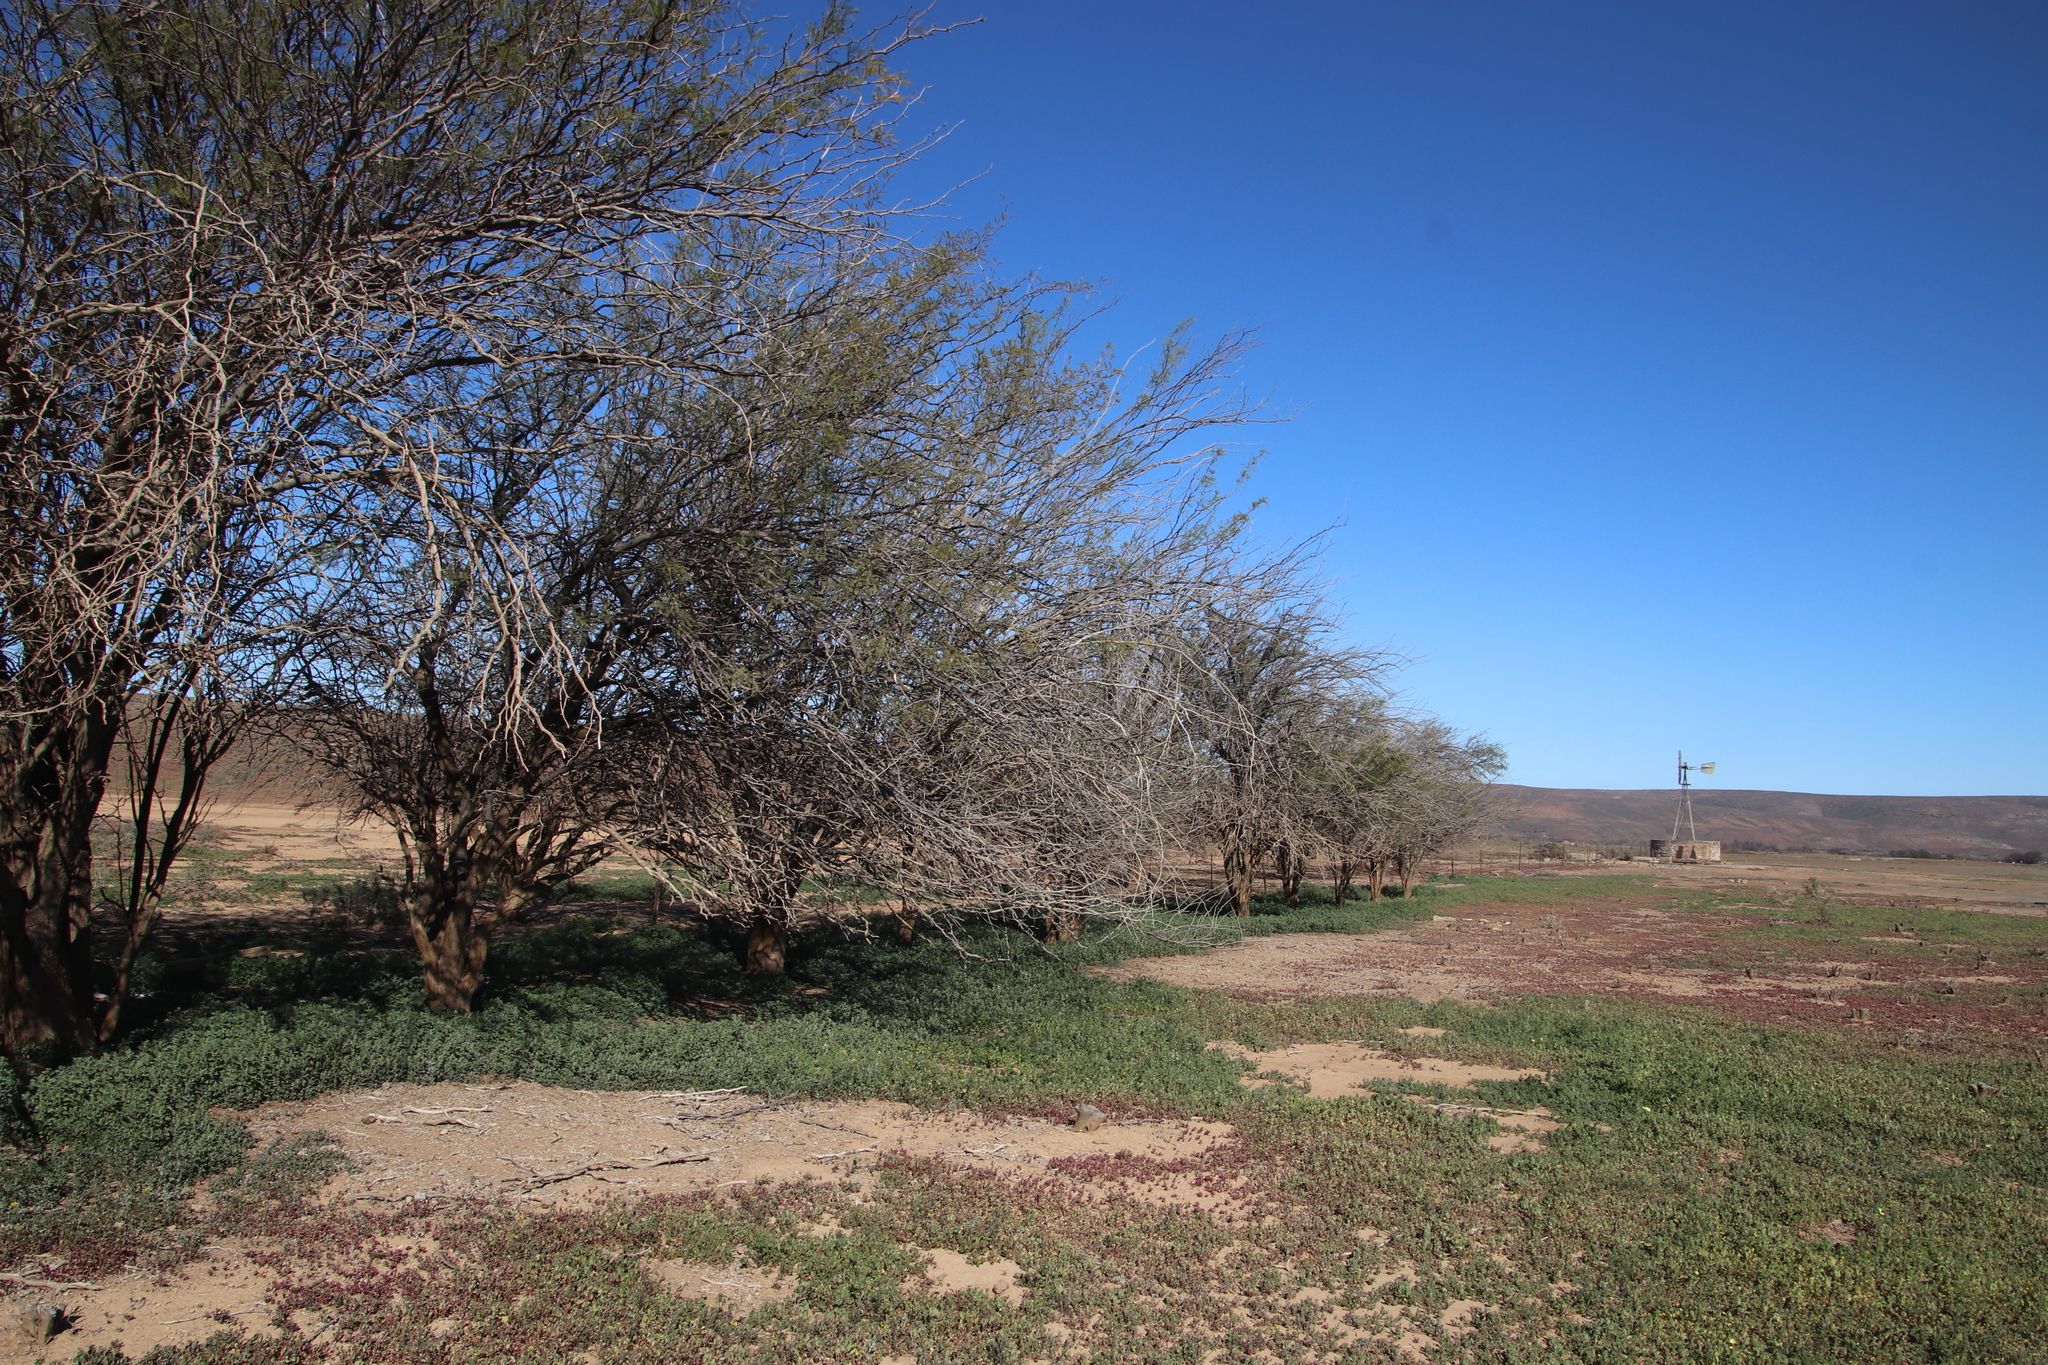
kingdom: Plantae
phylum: Tracheophyta
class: Magnoliopsida
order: Fabales
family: Fabaceae
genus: Prosopis
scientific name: Prosopis pubescens
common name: Screw-bean
